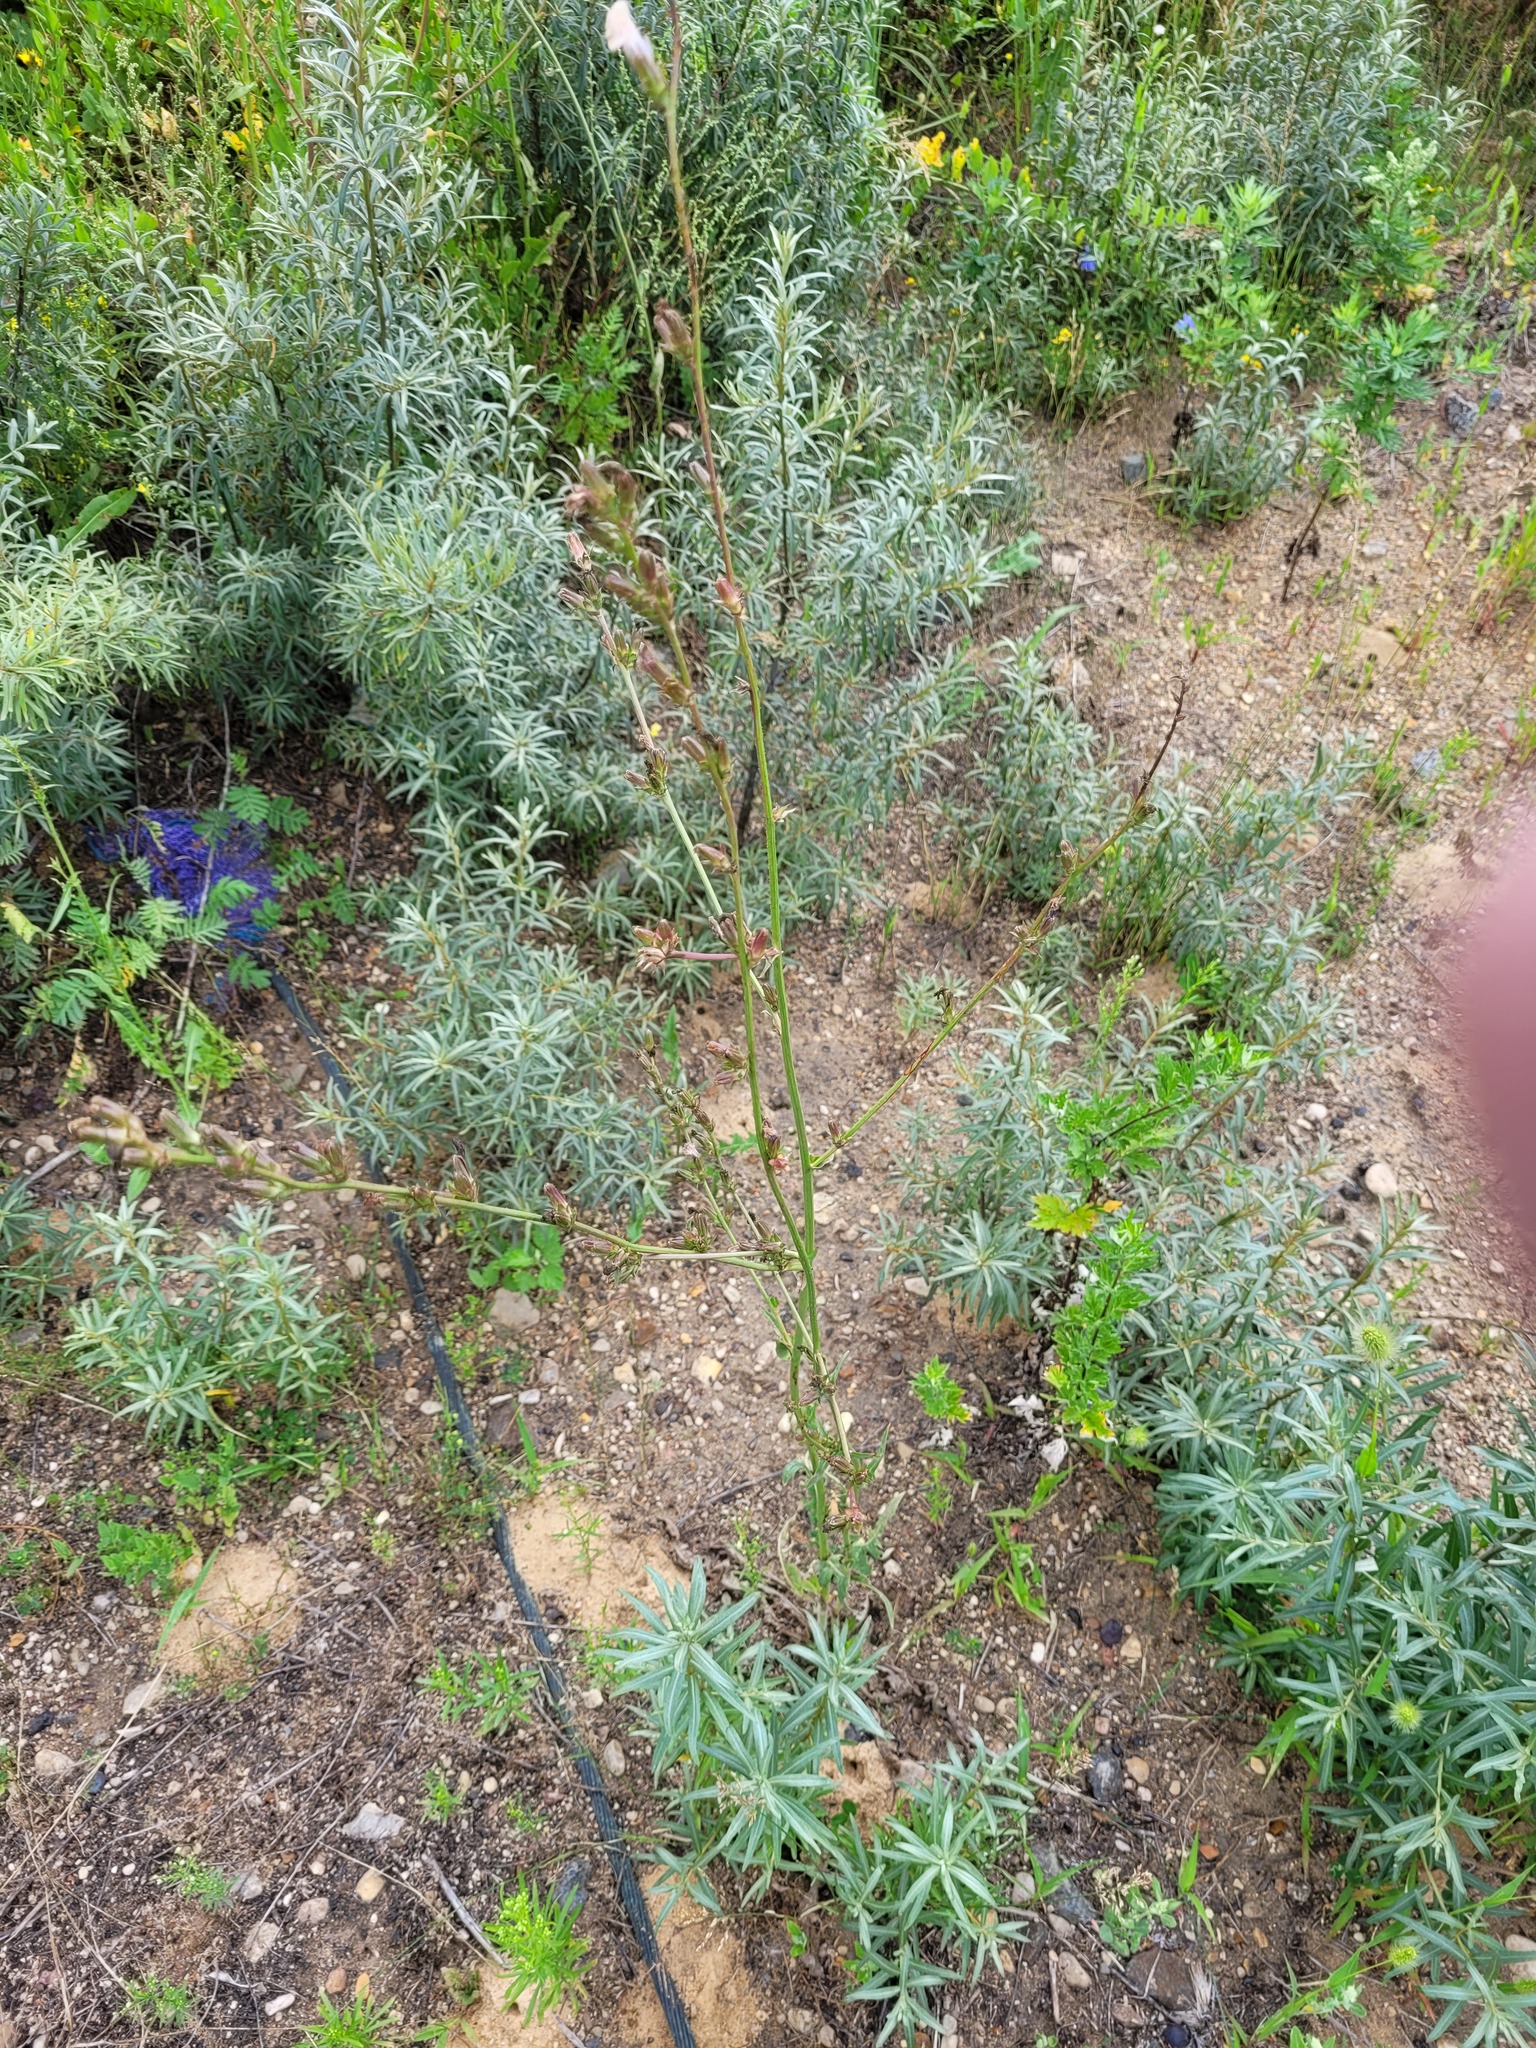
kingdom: Plantae
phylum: Tracheophyta
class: Magnoliopsida
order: Asterales
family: Asteraceae
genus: Cichorium
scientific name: Cichorium intybus
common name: Chicory
